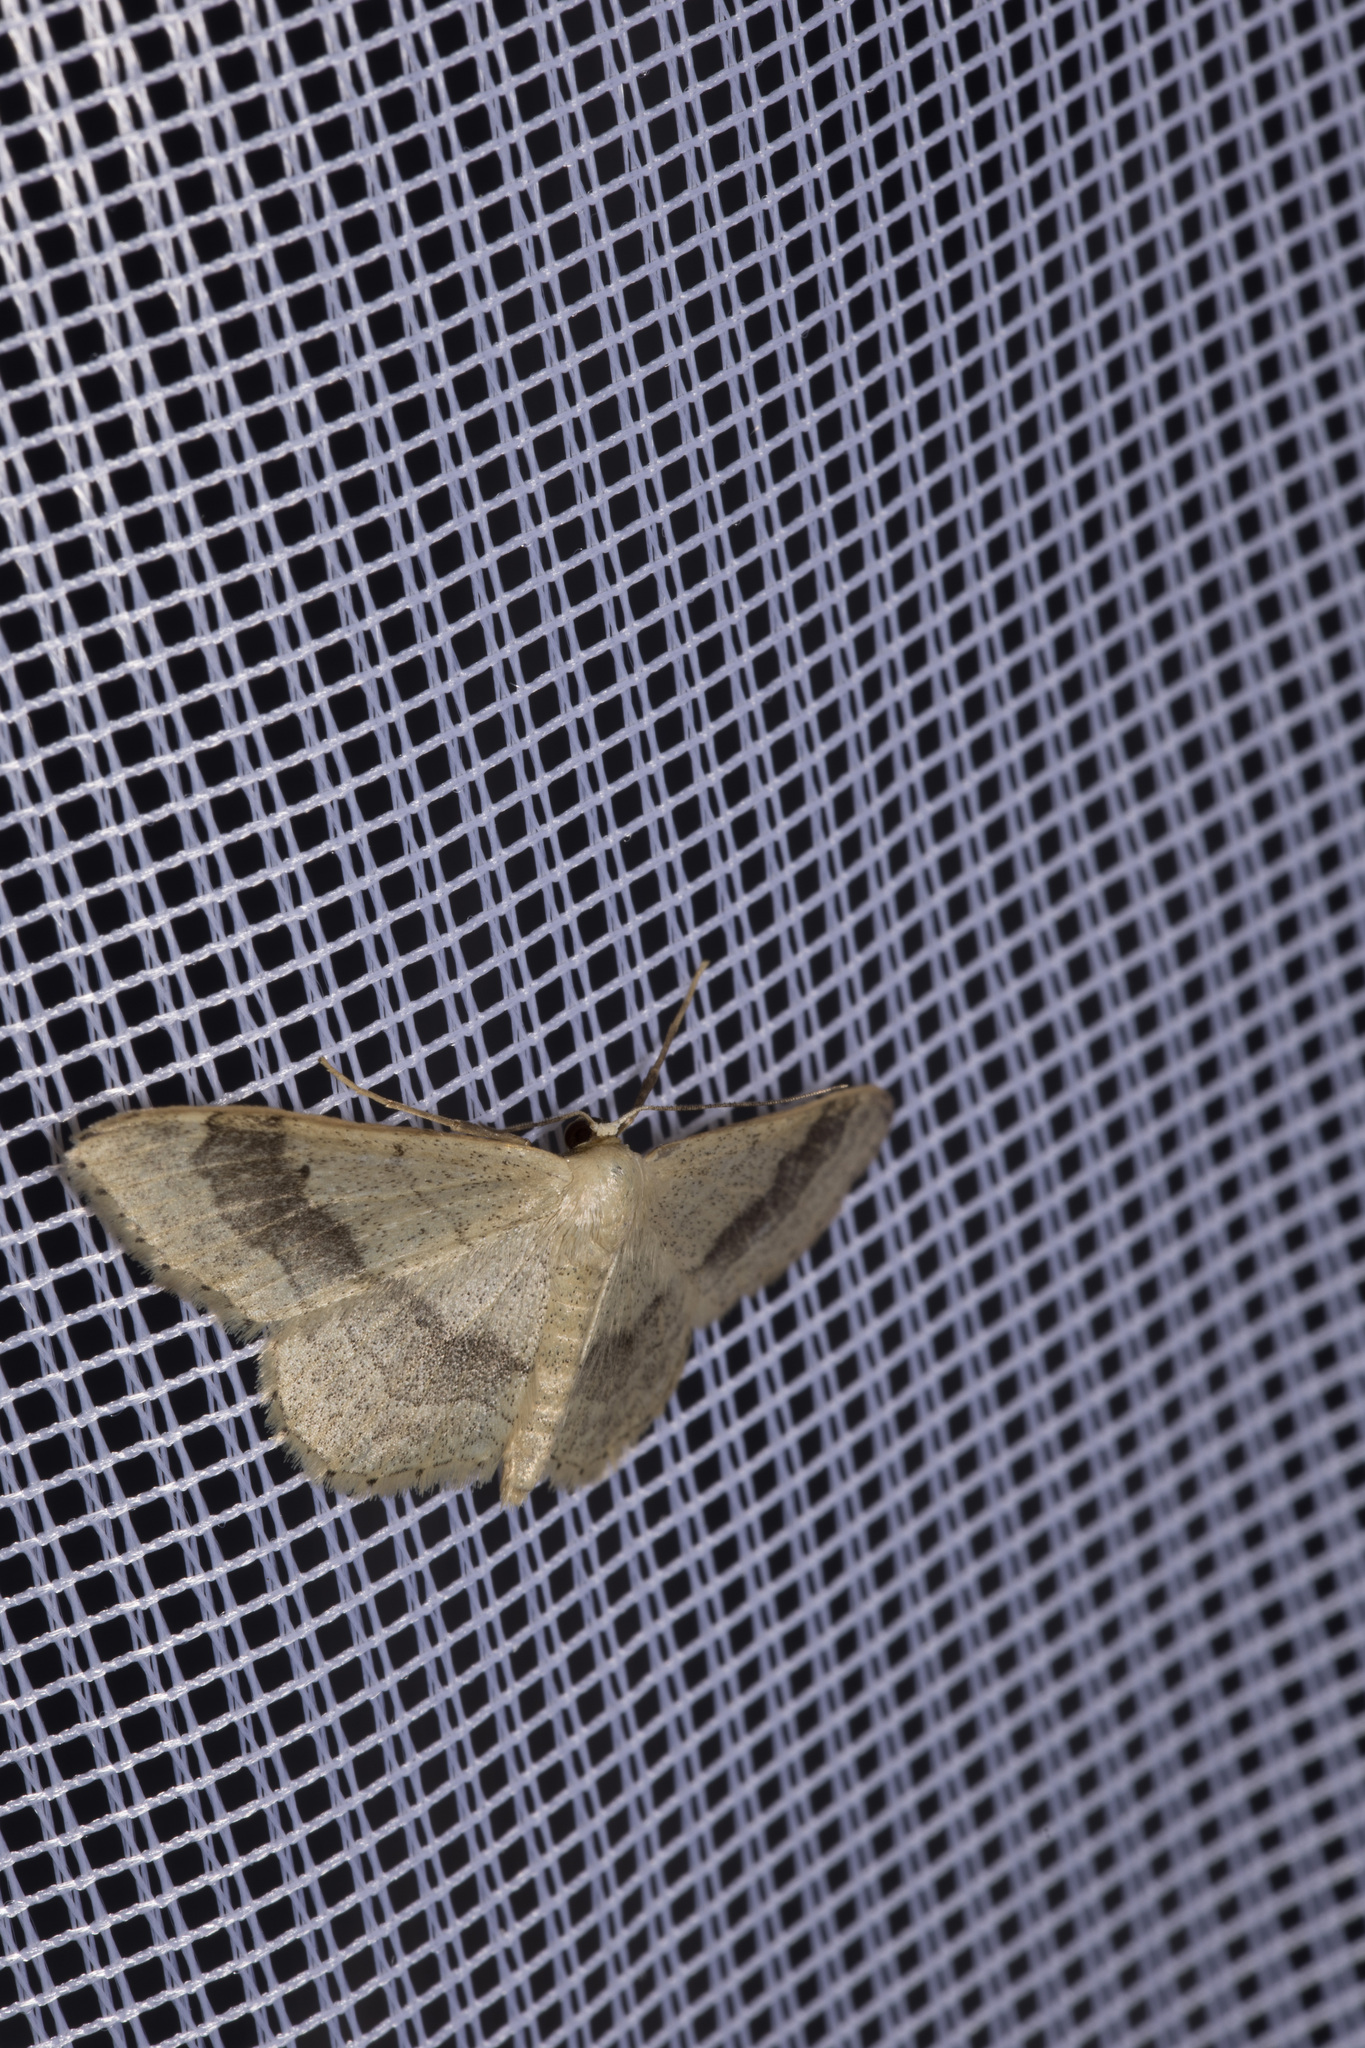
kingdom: Animalia
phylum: Arthropoda
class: Insecta
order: Lepidoptera
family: Geometridae
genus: Idaea
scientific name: Idaea aversata
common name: Riband wave
